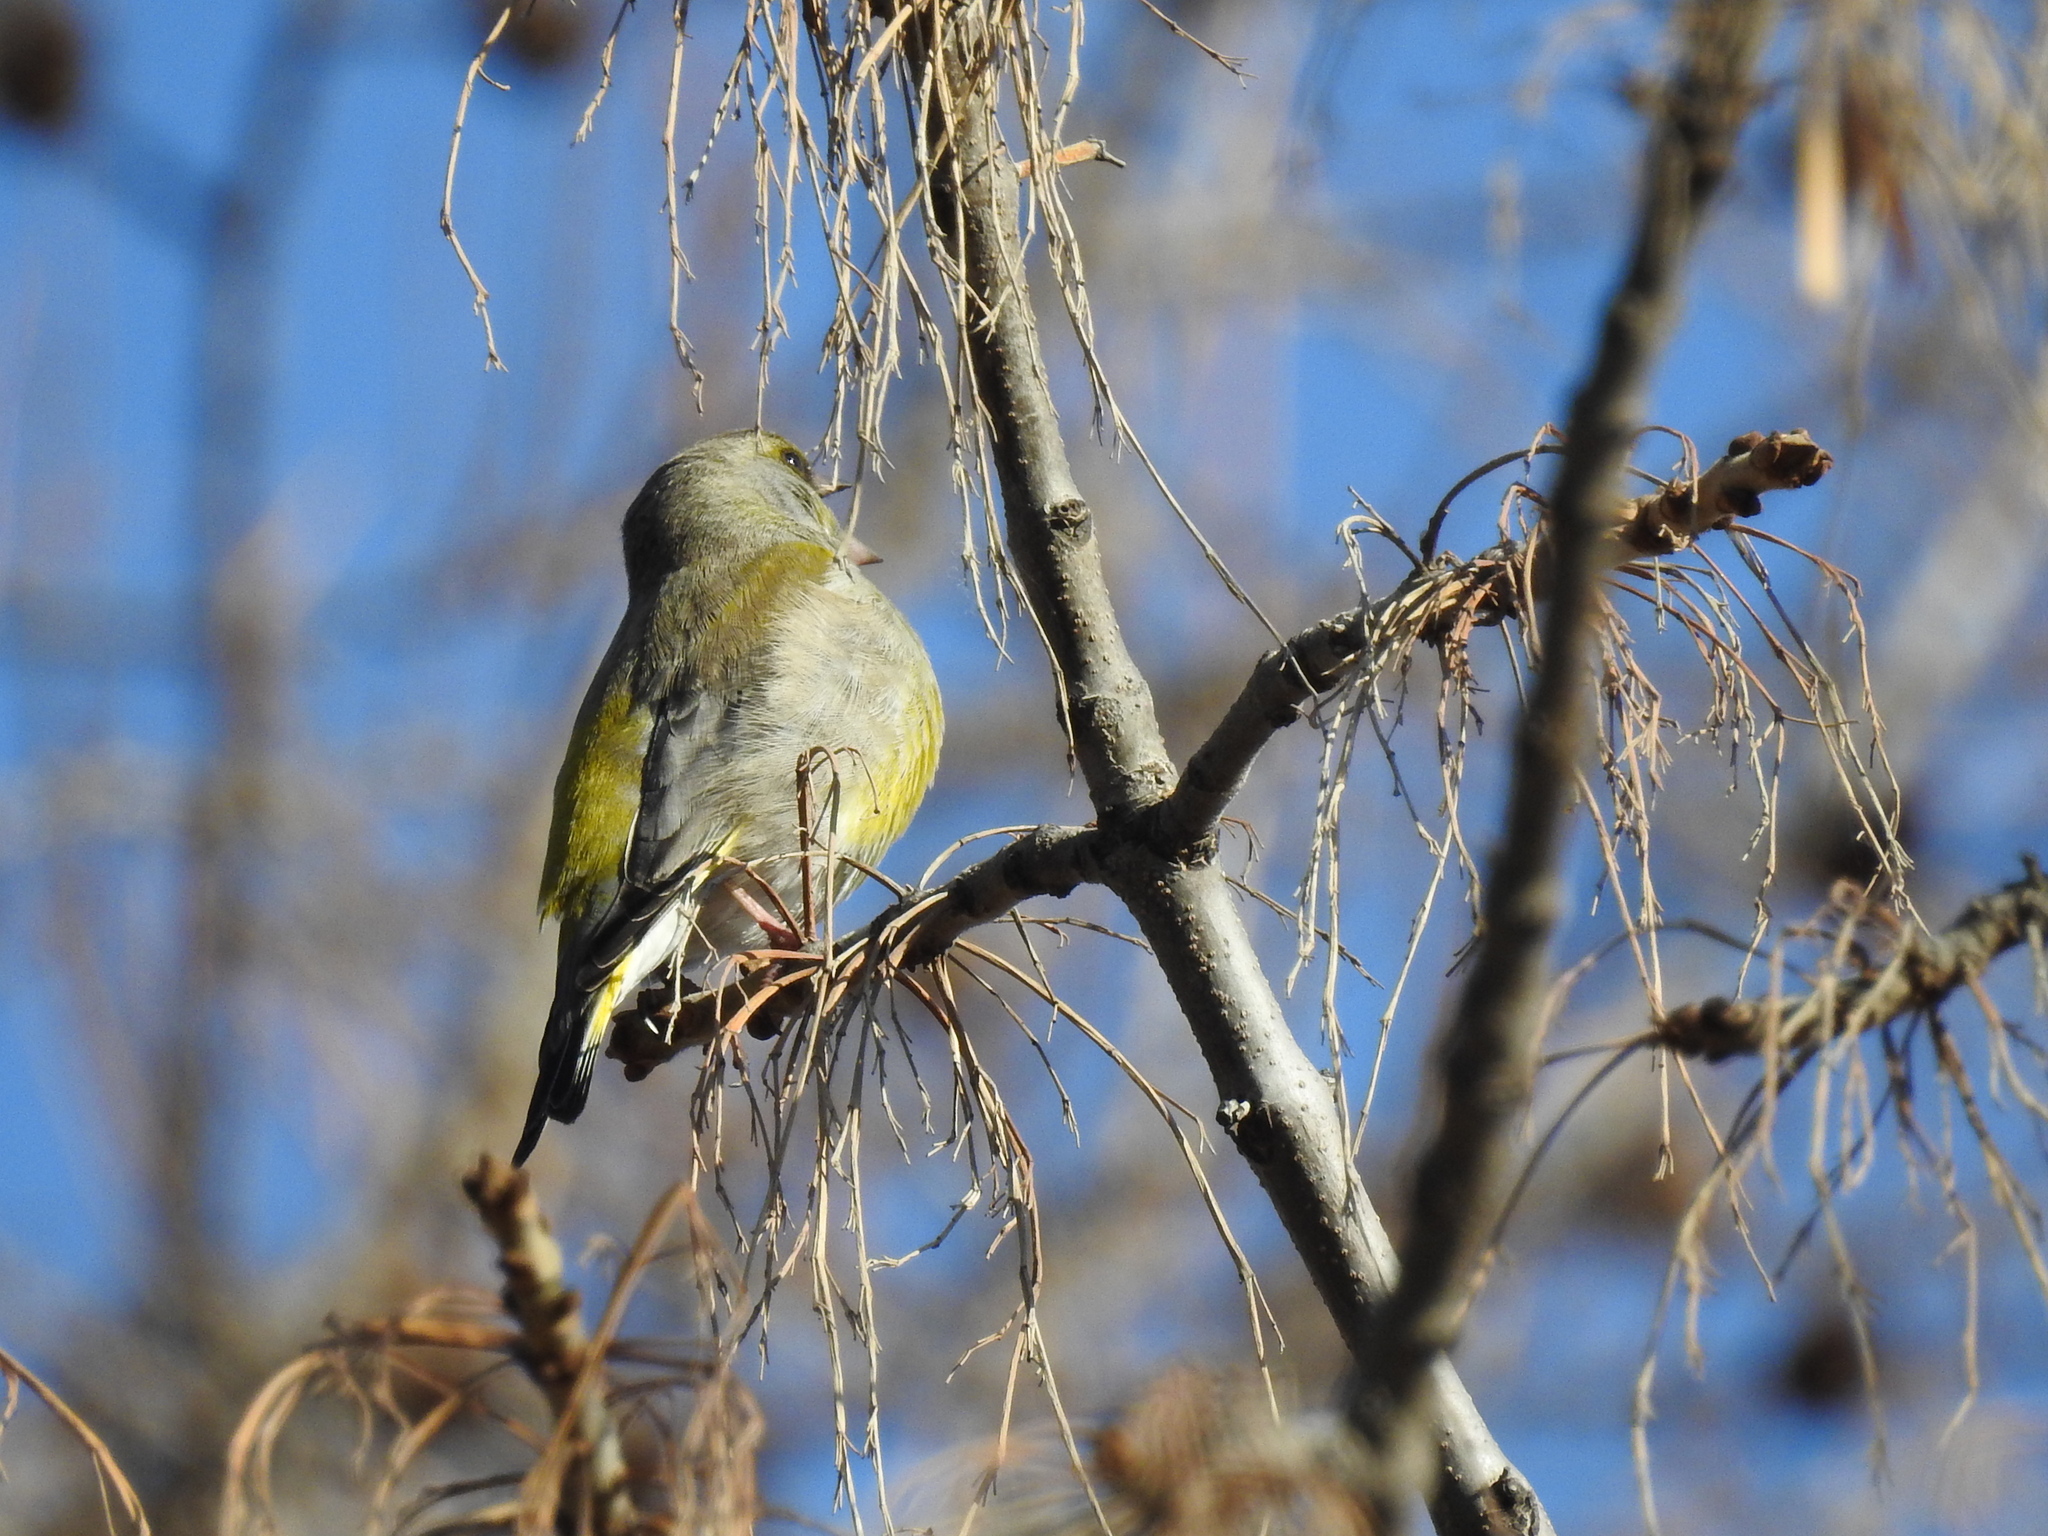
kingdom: Plantae
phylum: Tracheophyta
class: Liliopsida
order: Poales
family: Poaceae
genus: Chloris
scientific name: Chloris chloris
